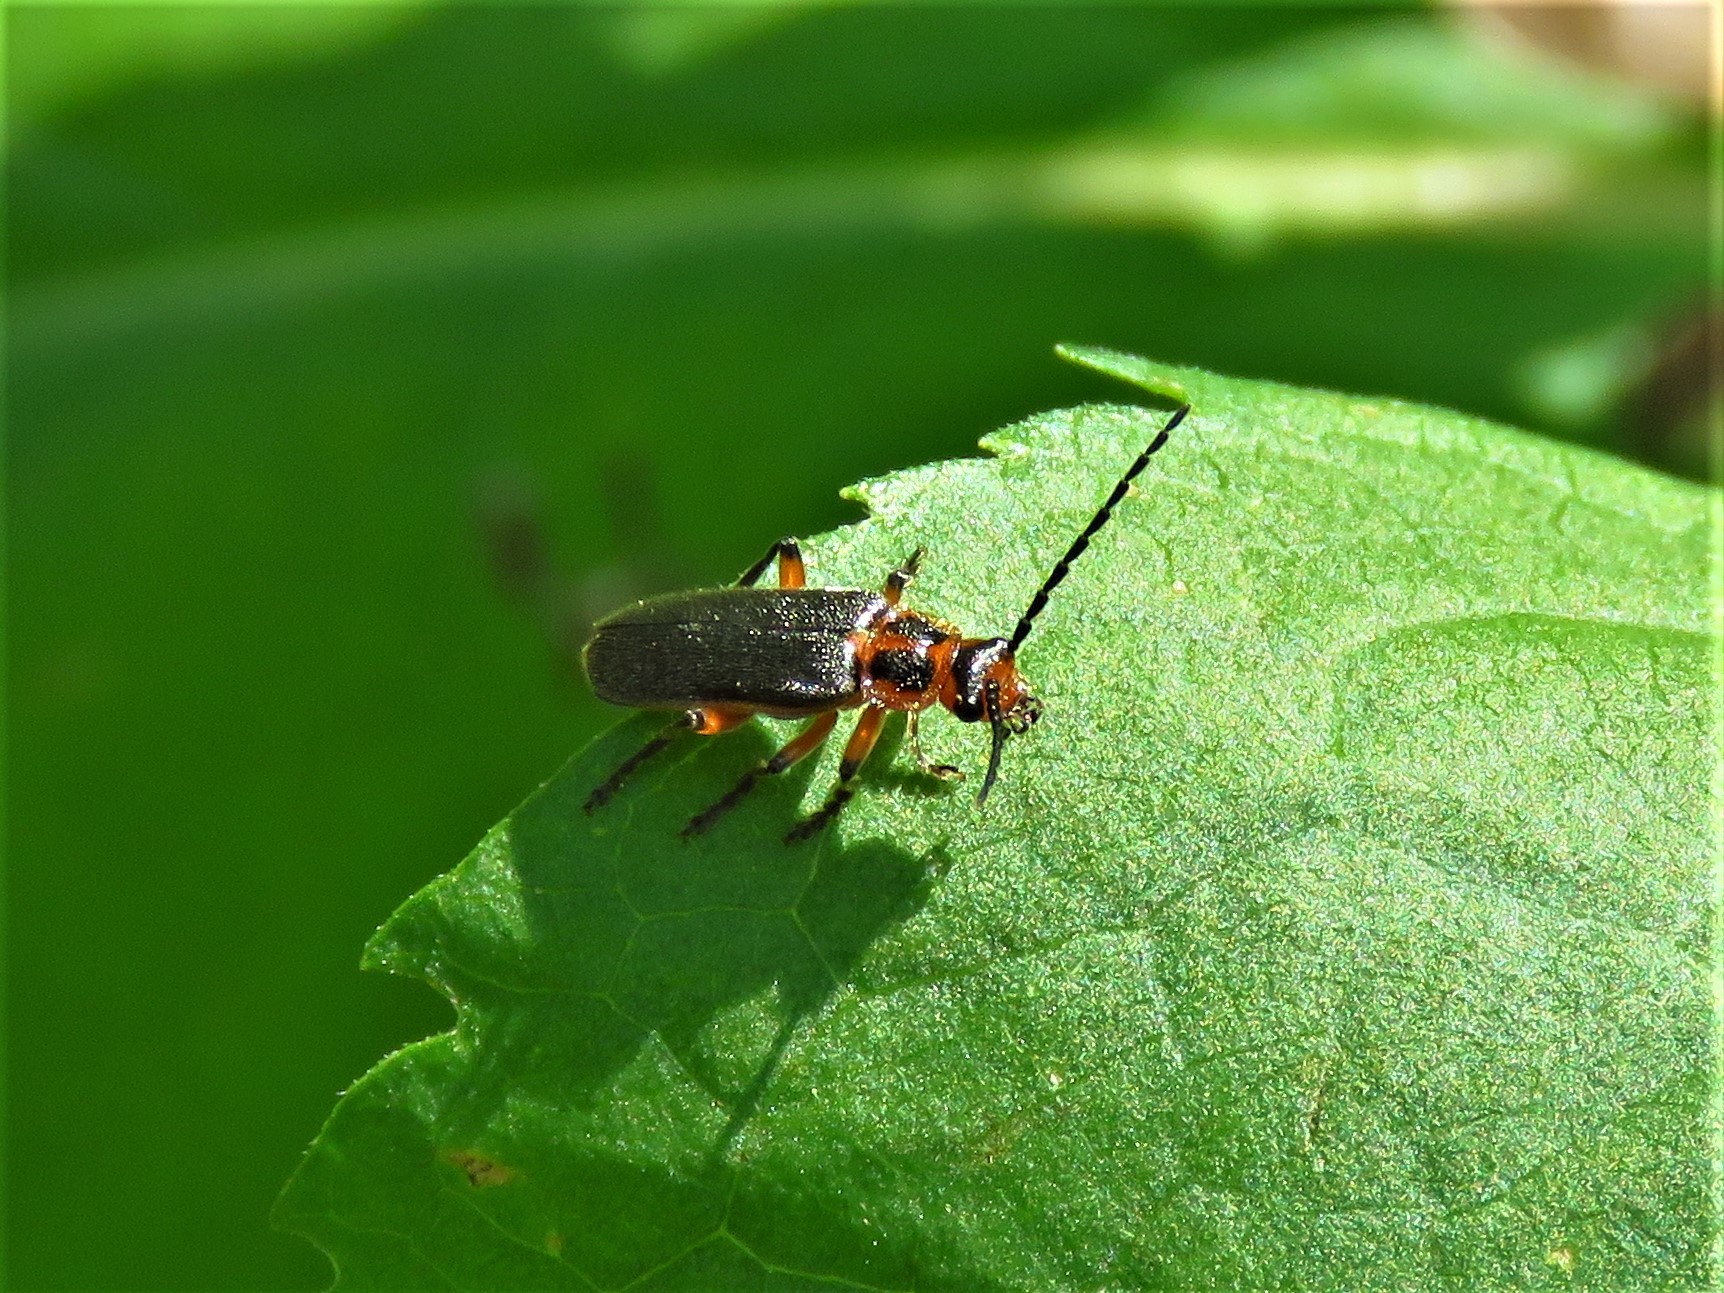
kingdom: Animalia
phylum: Arthropoda
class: Insecta
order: Coleoptera
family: Cantharidae
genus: Atalantycha
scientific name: Atalantycha bilineata
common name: Two-lined leatherwing
